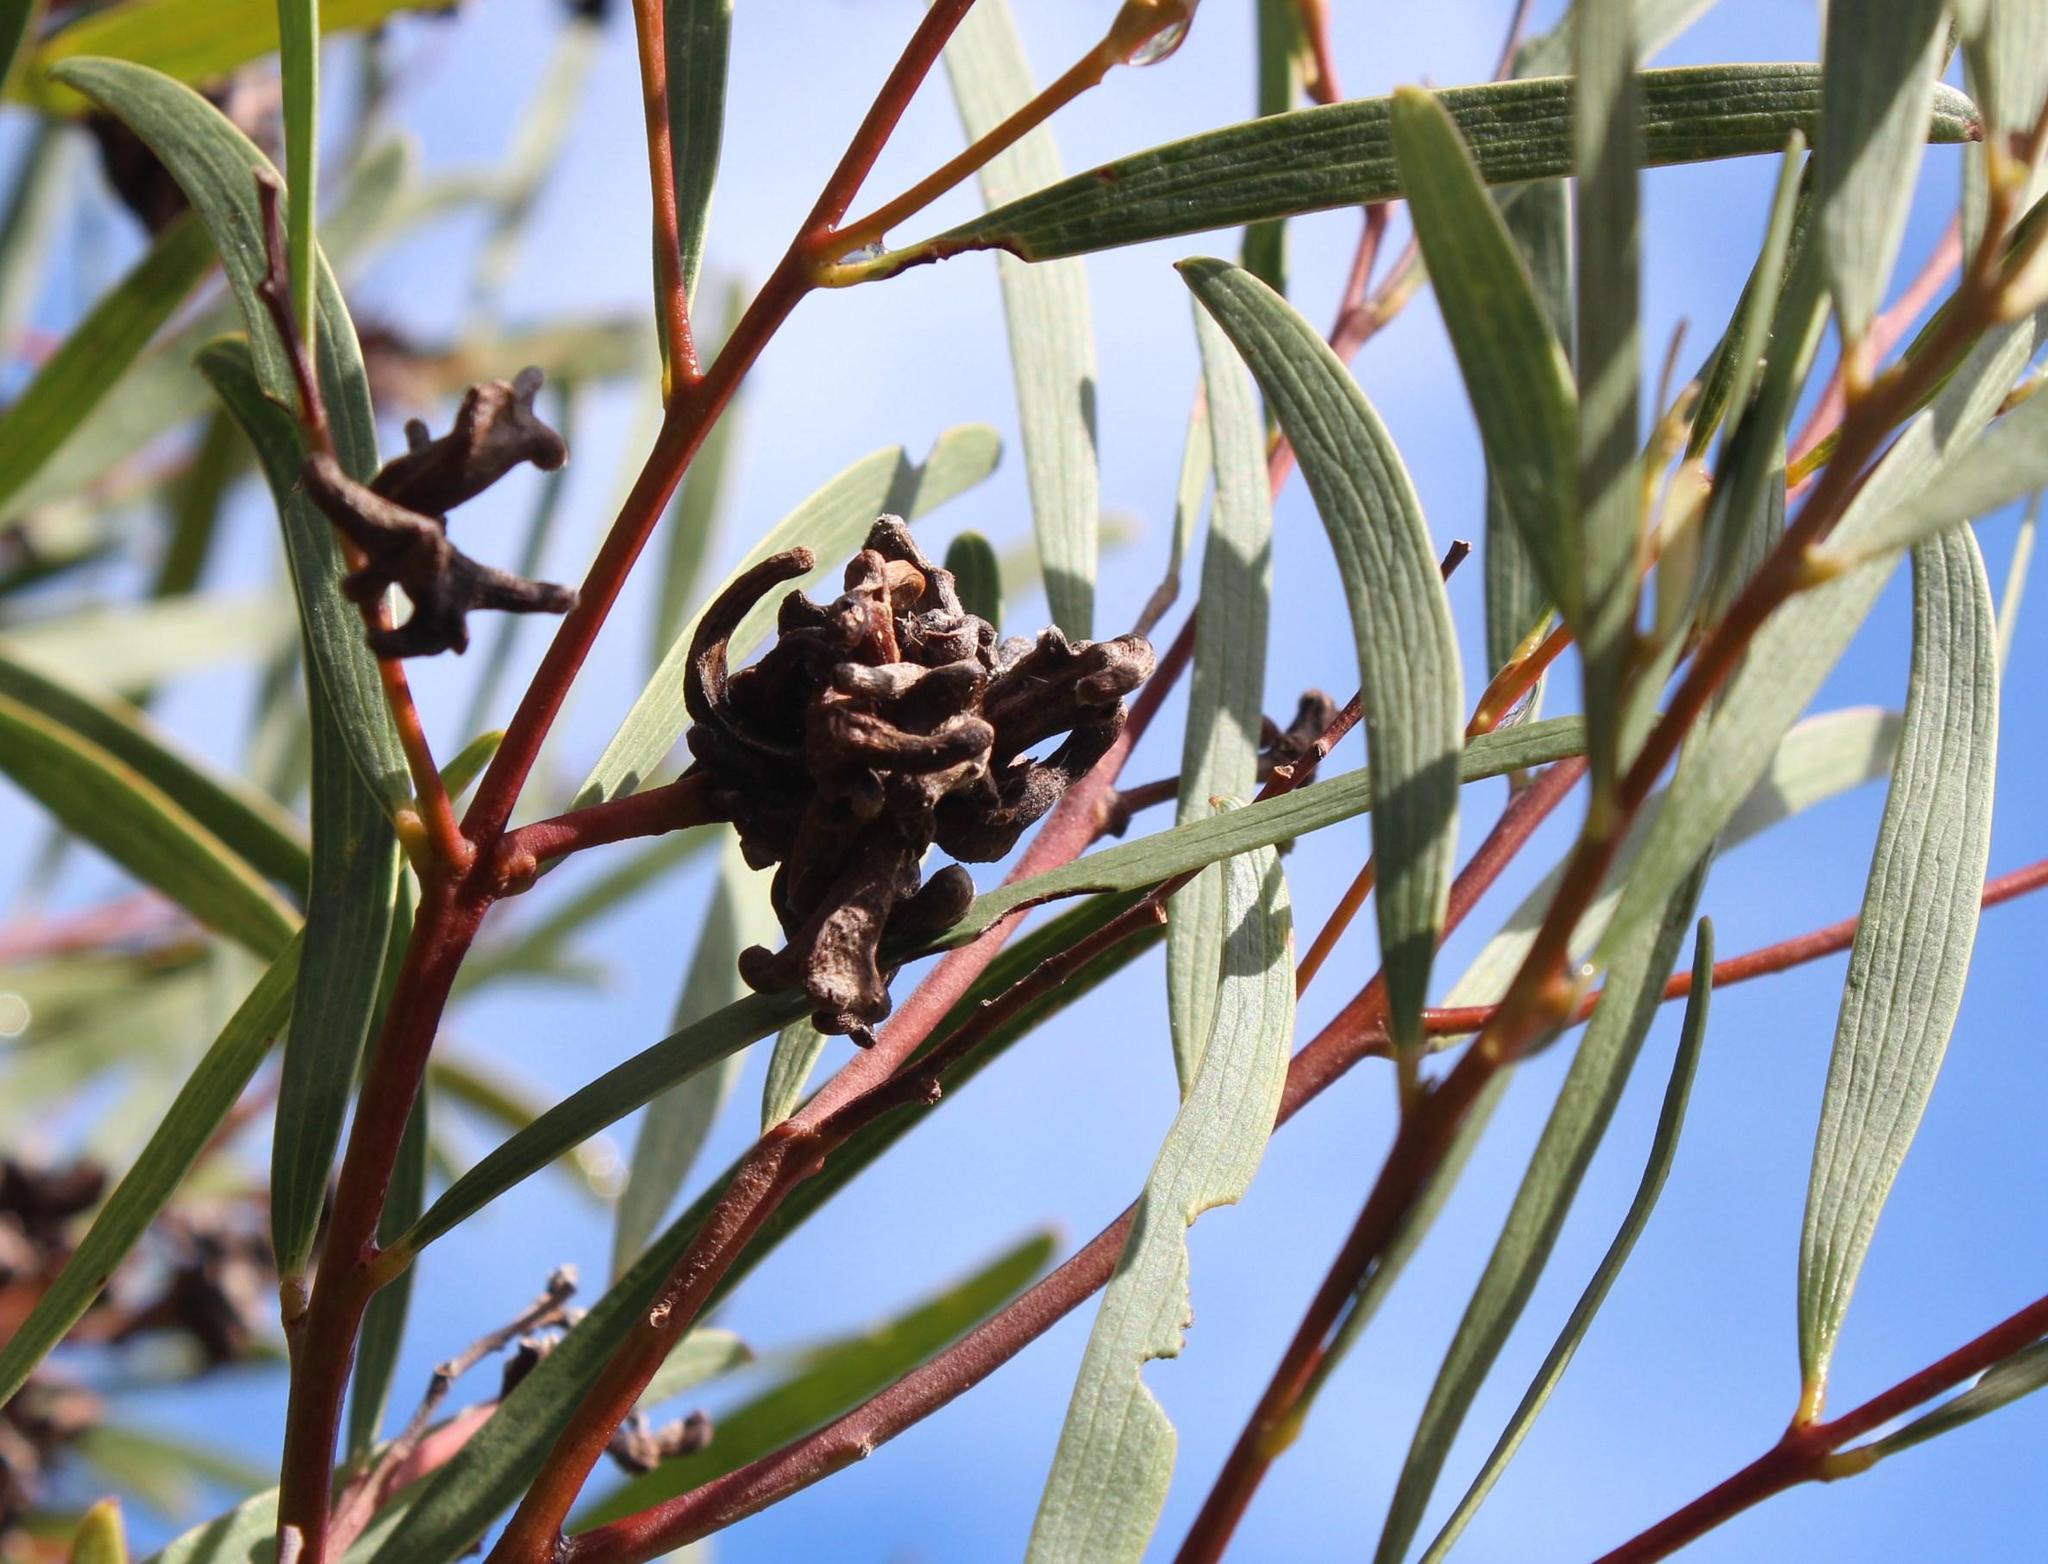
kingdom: Animalia
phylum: Arthropoda
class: Insecta
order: Diptera
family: Cecidomyiidae
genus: Dasineura
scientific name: Dasineura dielsi
